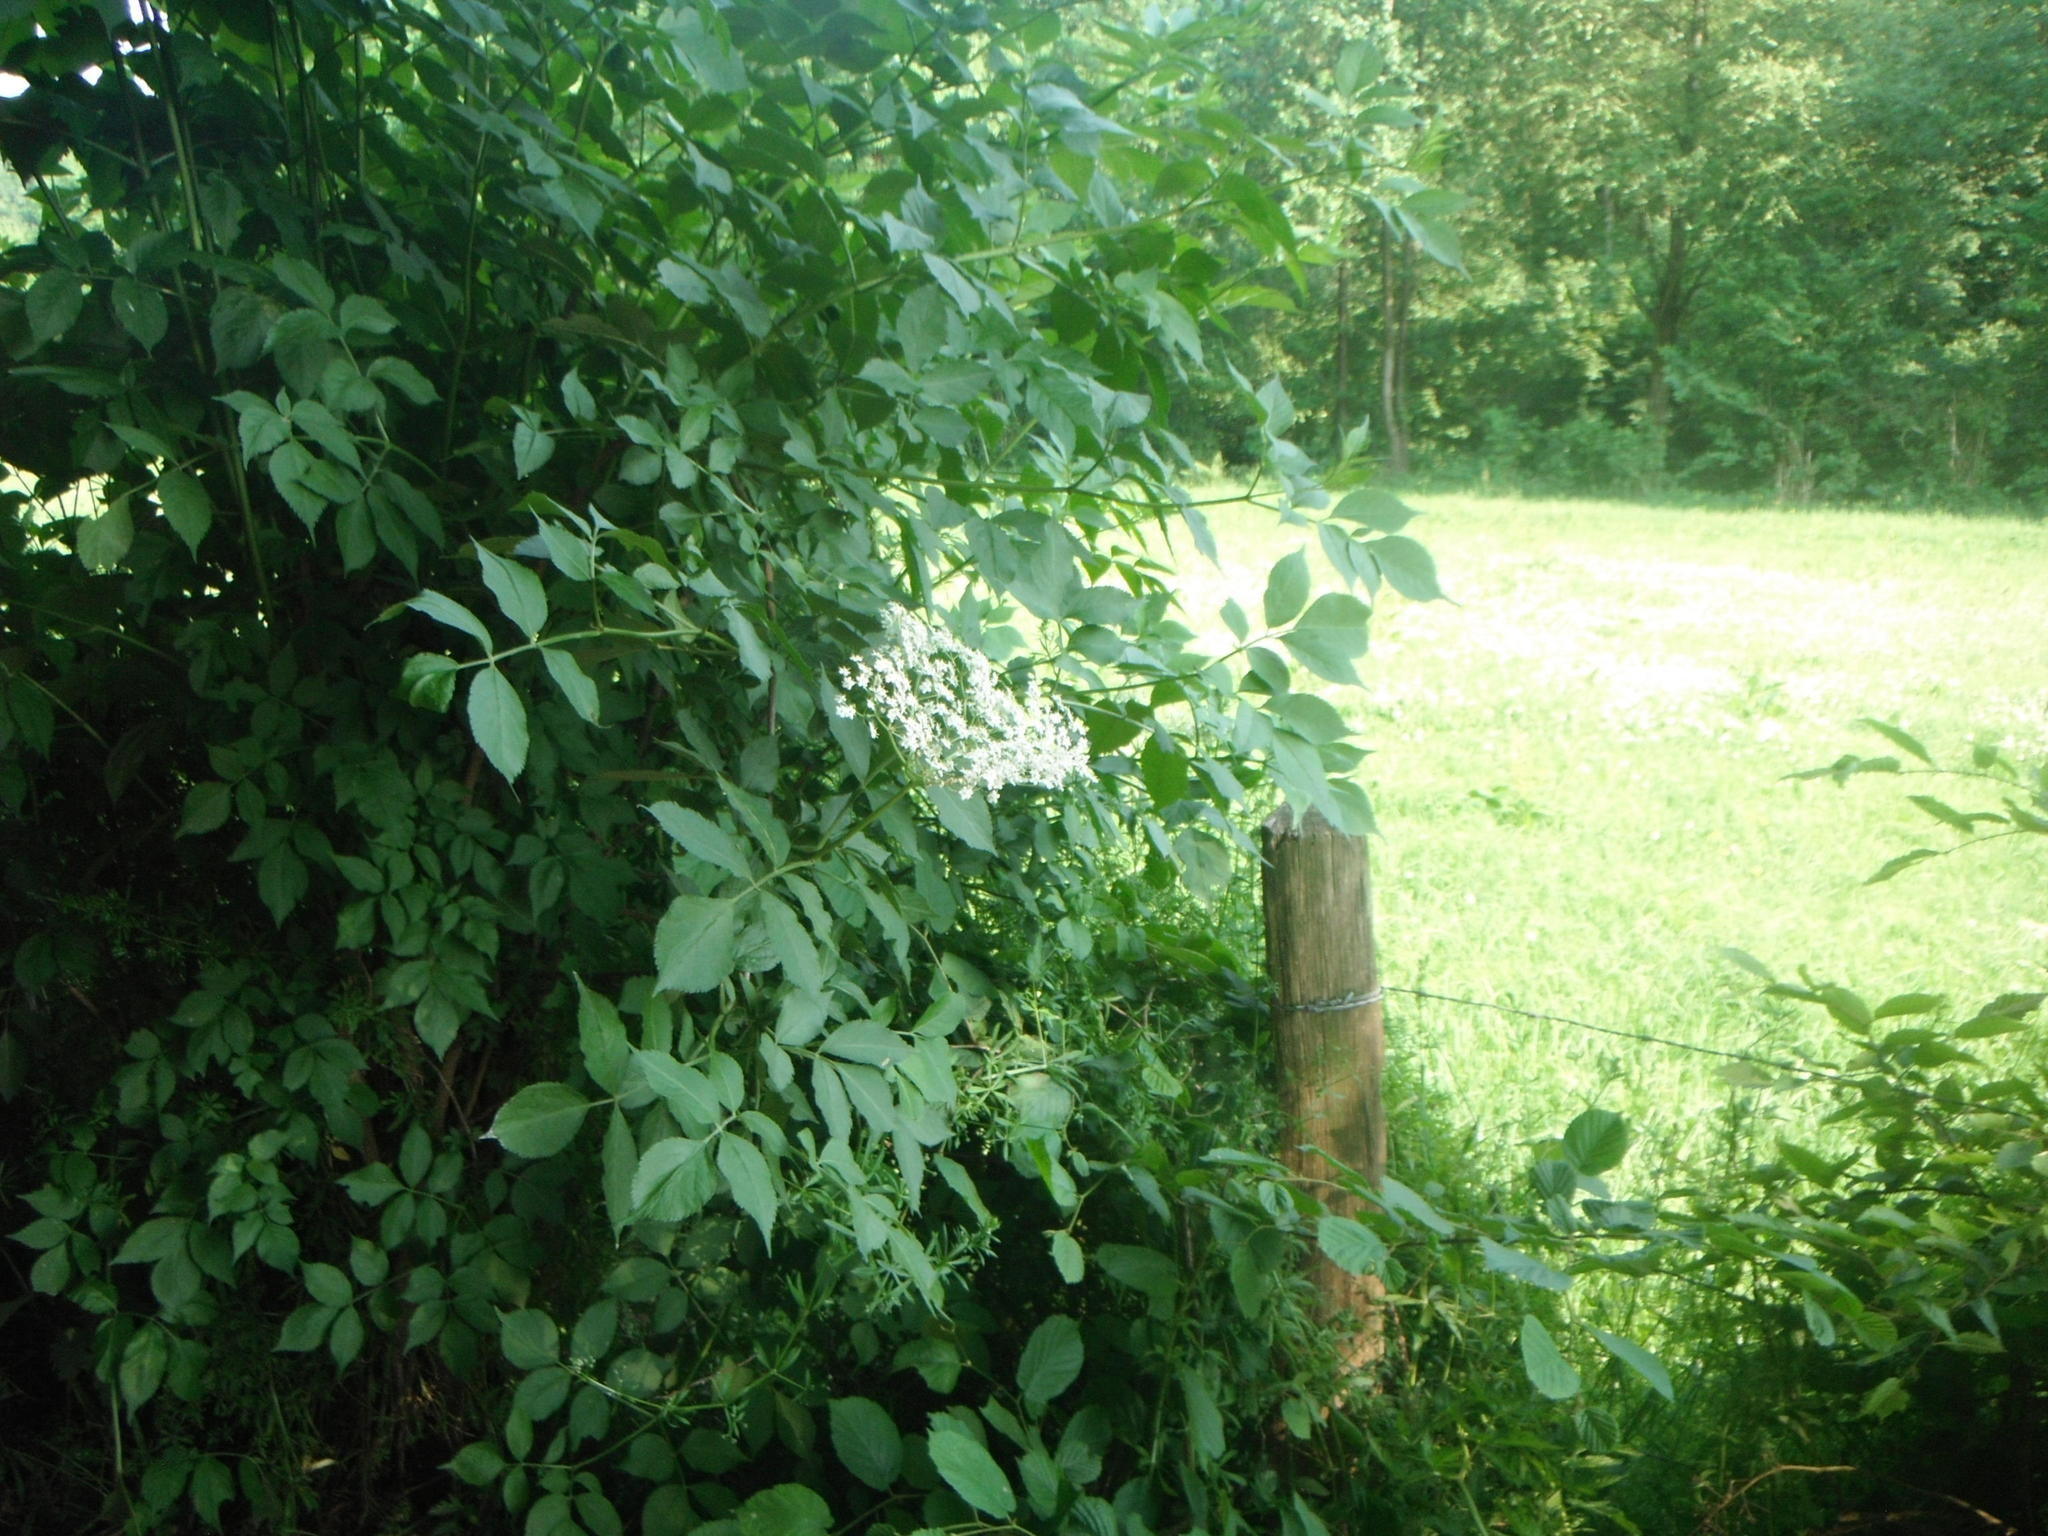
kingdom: Plantae
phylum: Tracheophyta
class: Magnoliopsida
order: Dipsacales
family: Viburnaceae
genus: Sambucus
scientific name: Sambucus nigra
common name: Elder
